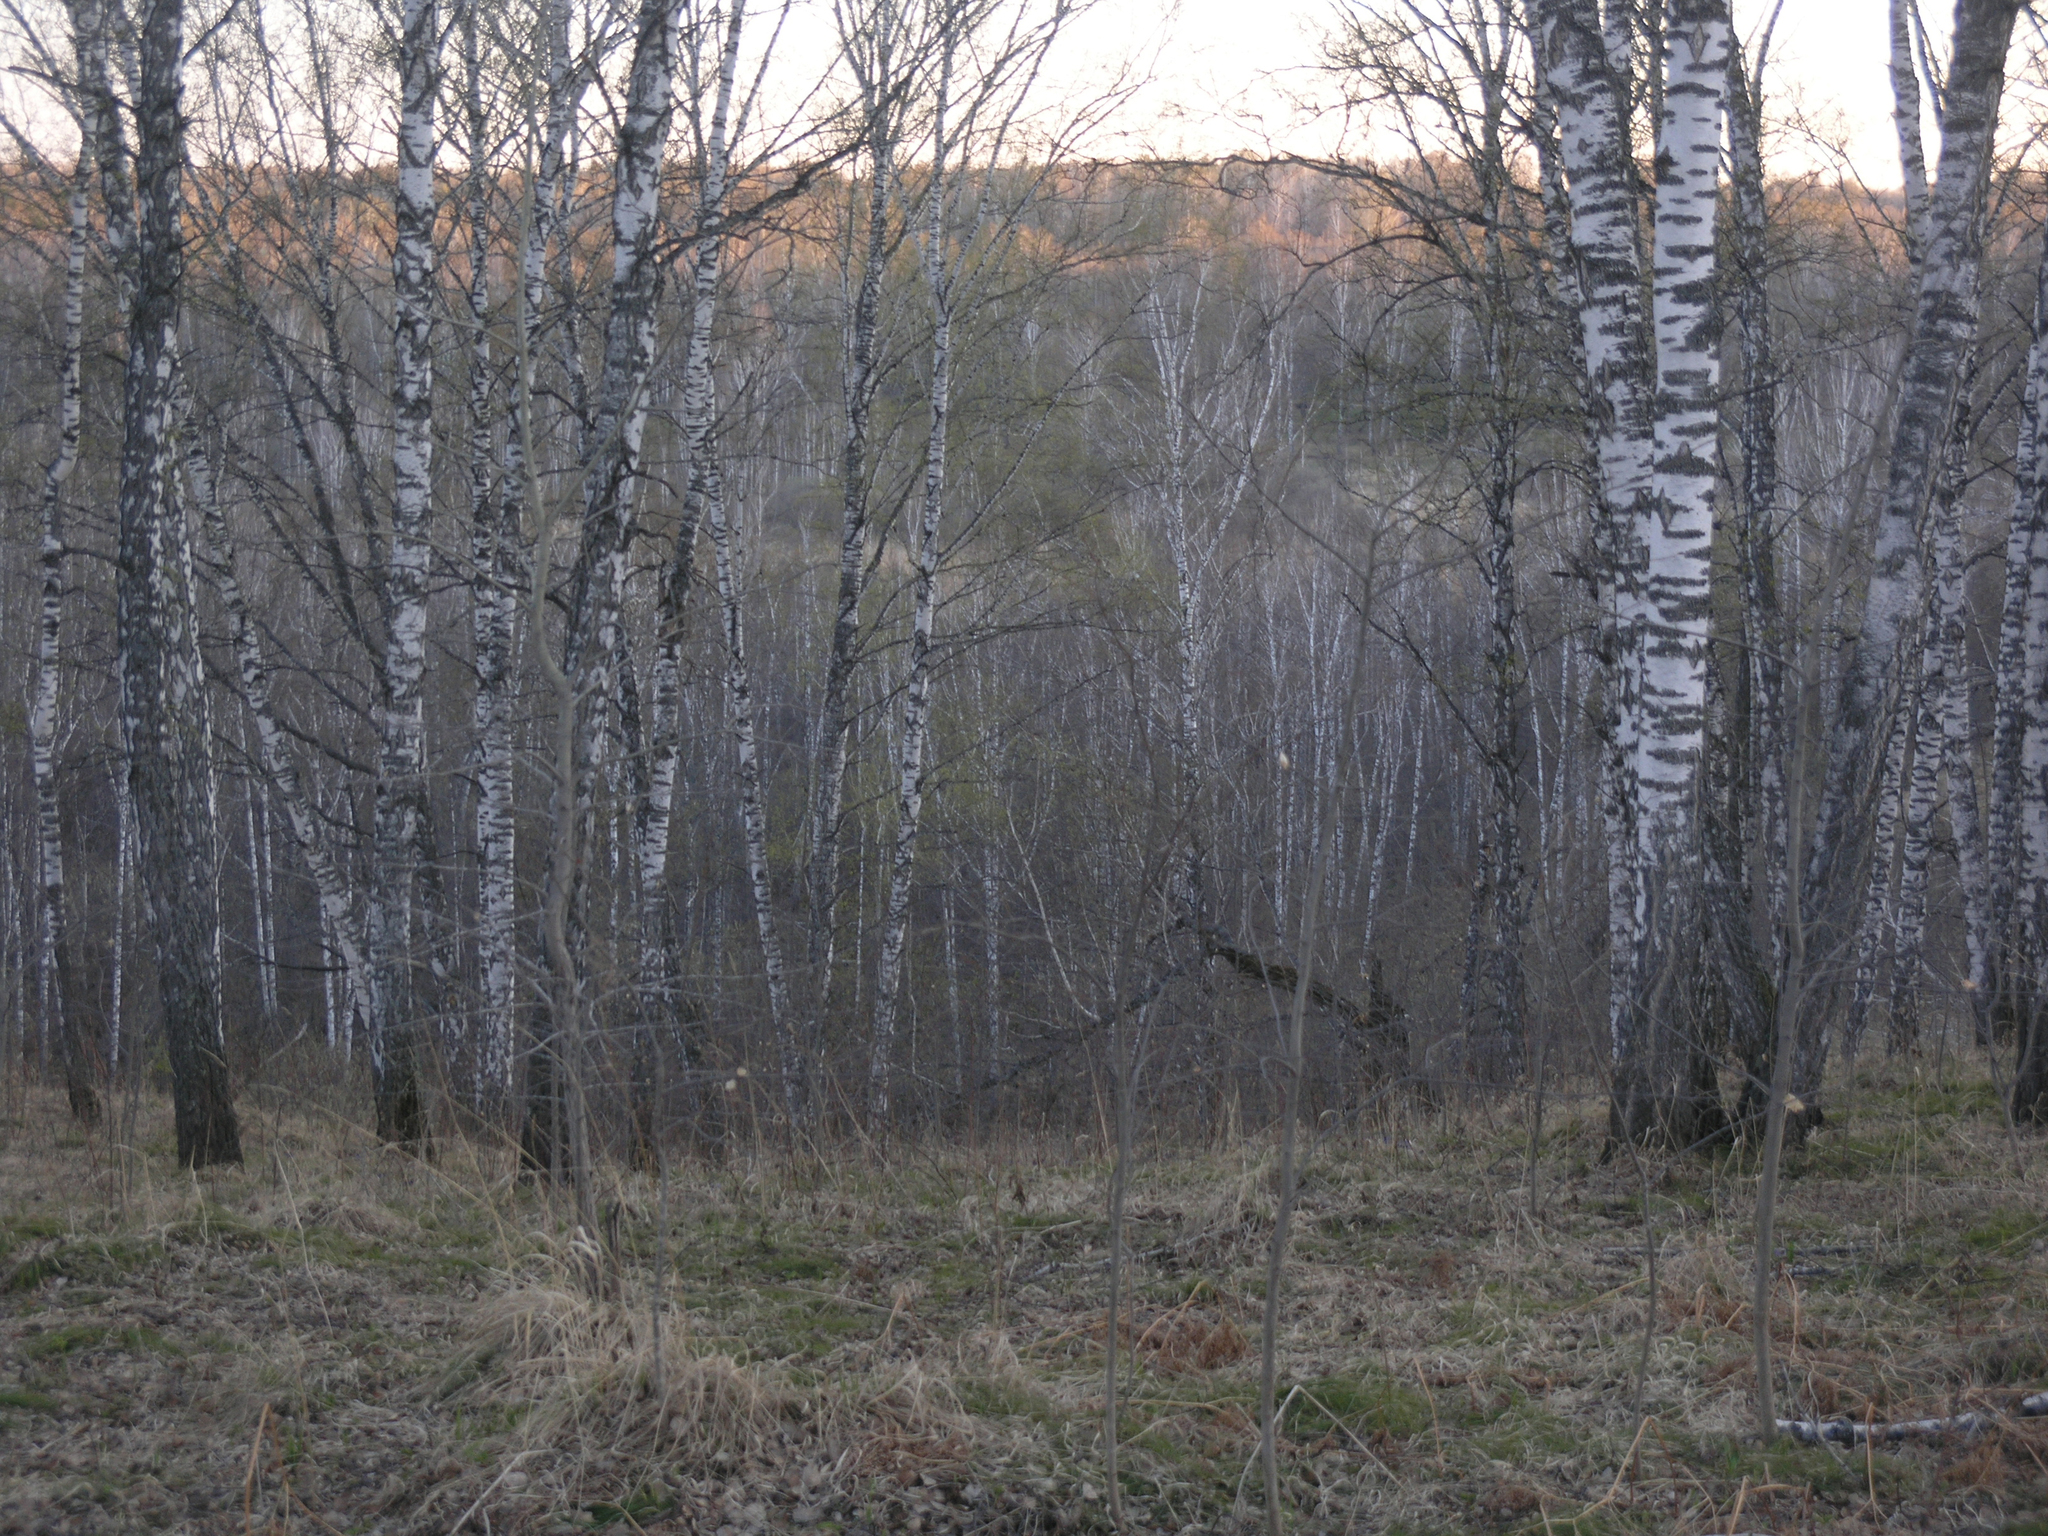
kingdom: Plantae
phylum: Tracheophyta
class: Magnoliopsida
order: Fagales
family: Betulaceae
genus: Betula
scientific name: Betula pendula
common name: Silver birch
